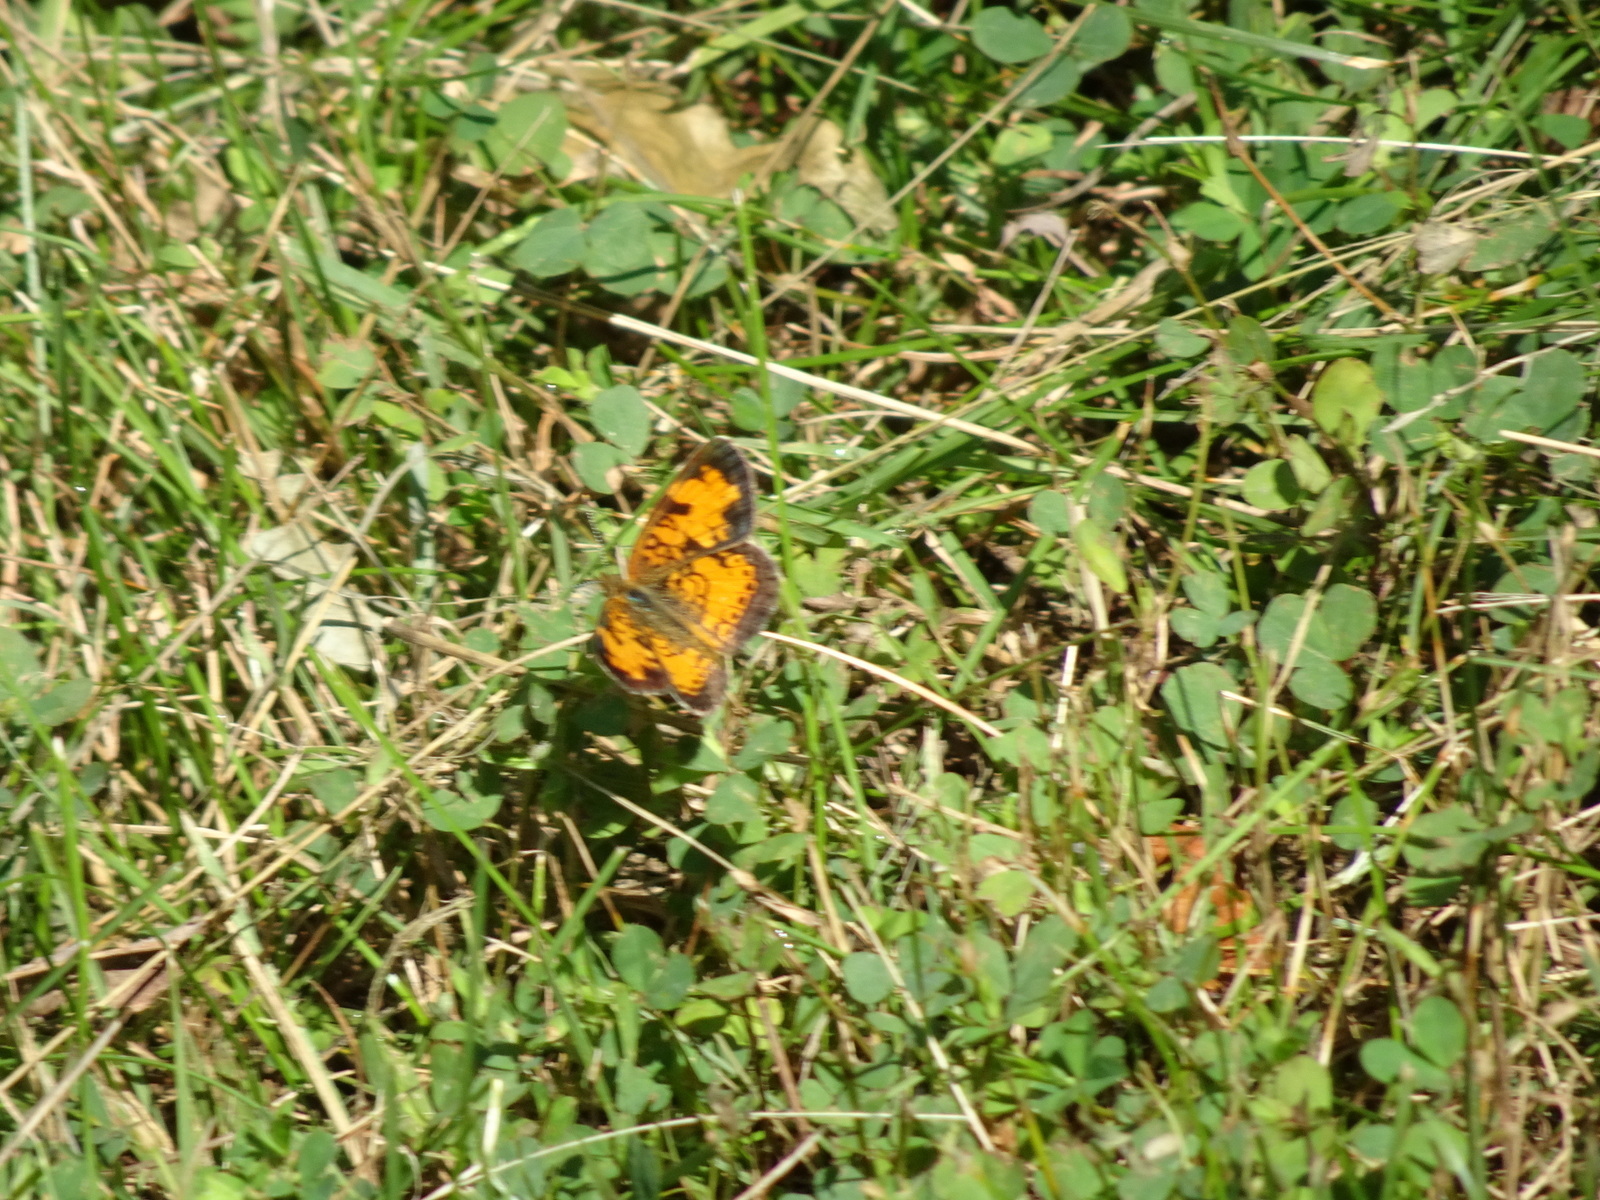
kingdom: Animalia
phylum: Arthropoda
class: Insecta
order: Lepidoptera
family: Nymphalidae
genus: Phyciodes
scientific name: Phyciodes tharos
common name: Pearl crescent
